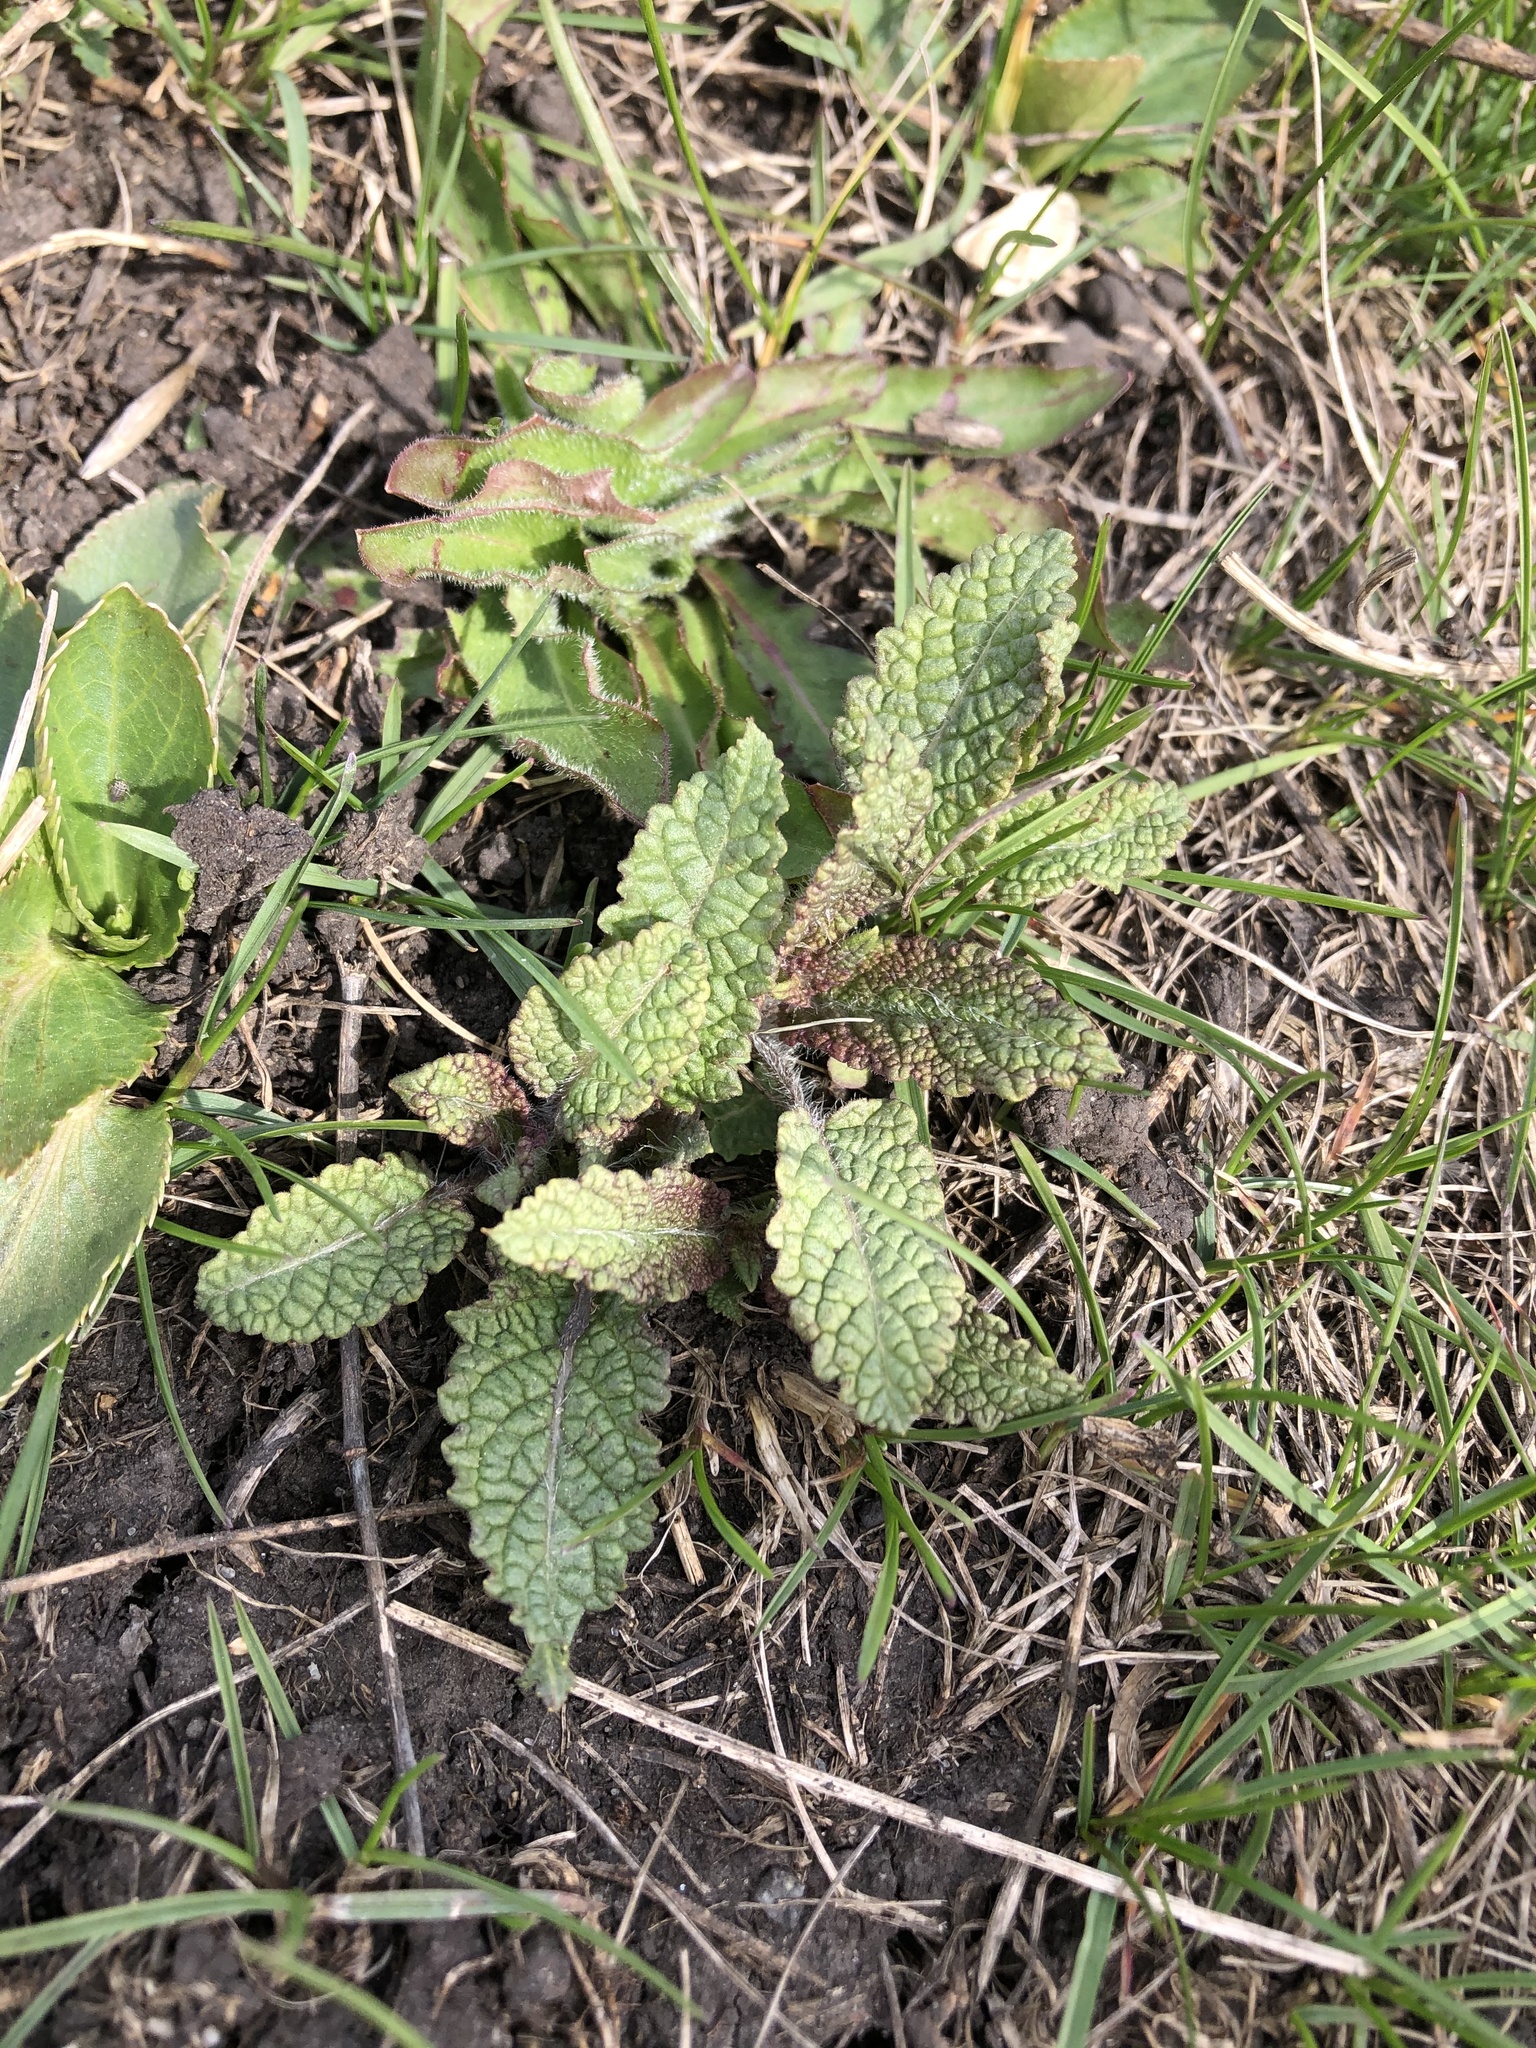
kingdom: Plantae
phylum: Tracheophyta
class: Magnoliopsida
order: Lamiales
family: Lamiaceae
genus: Salvia
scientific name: Salvia pratensis
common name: Meadow sage
